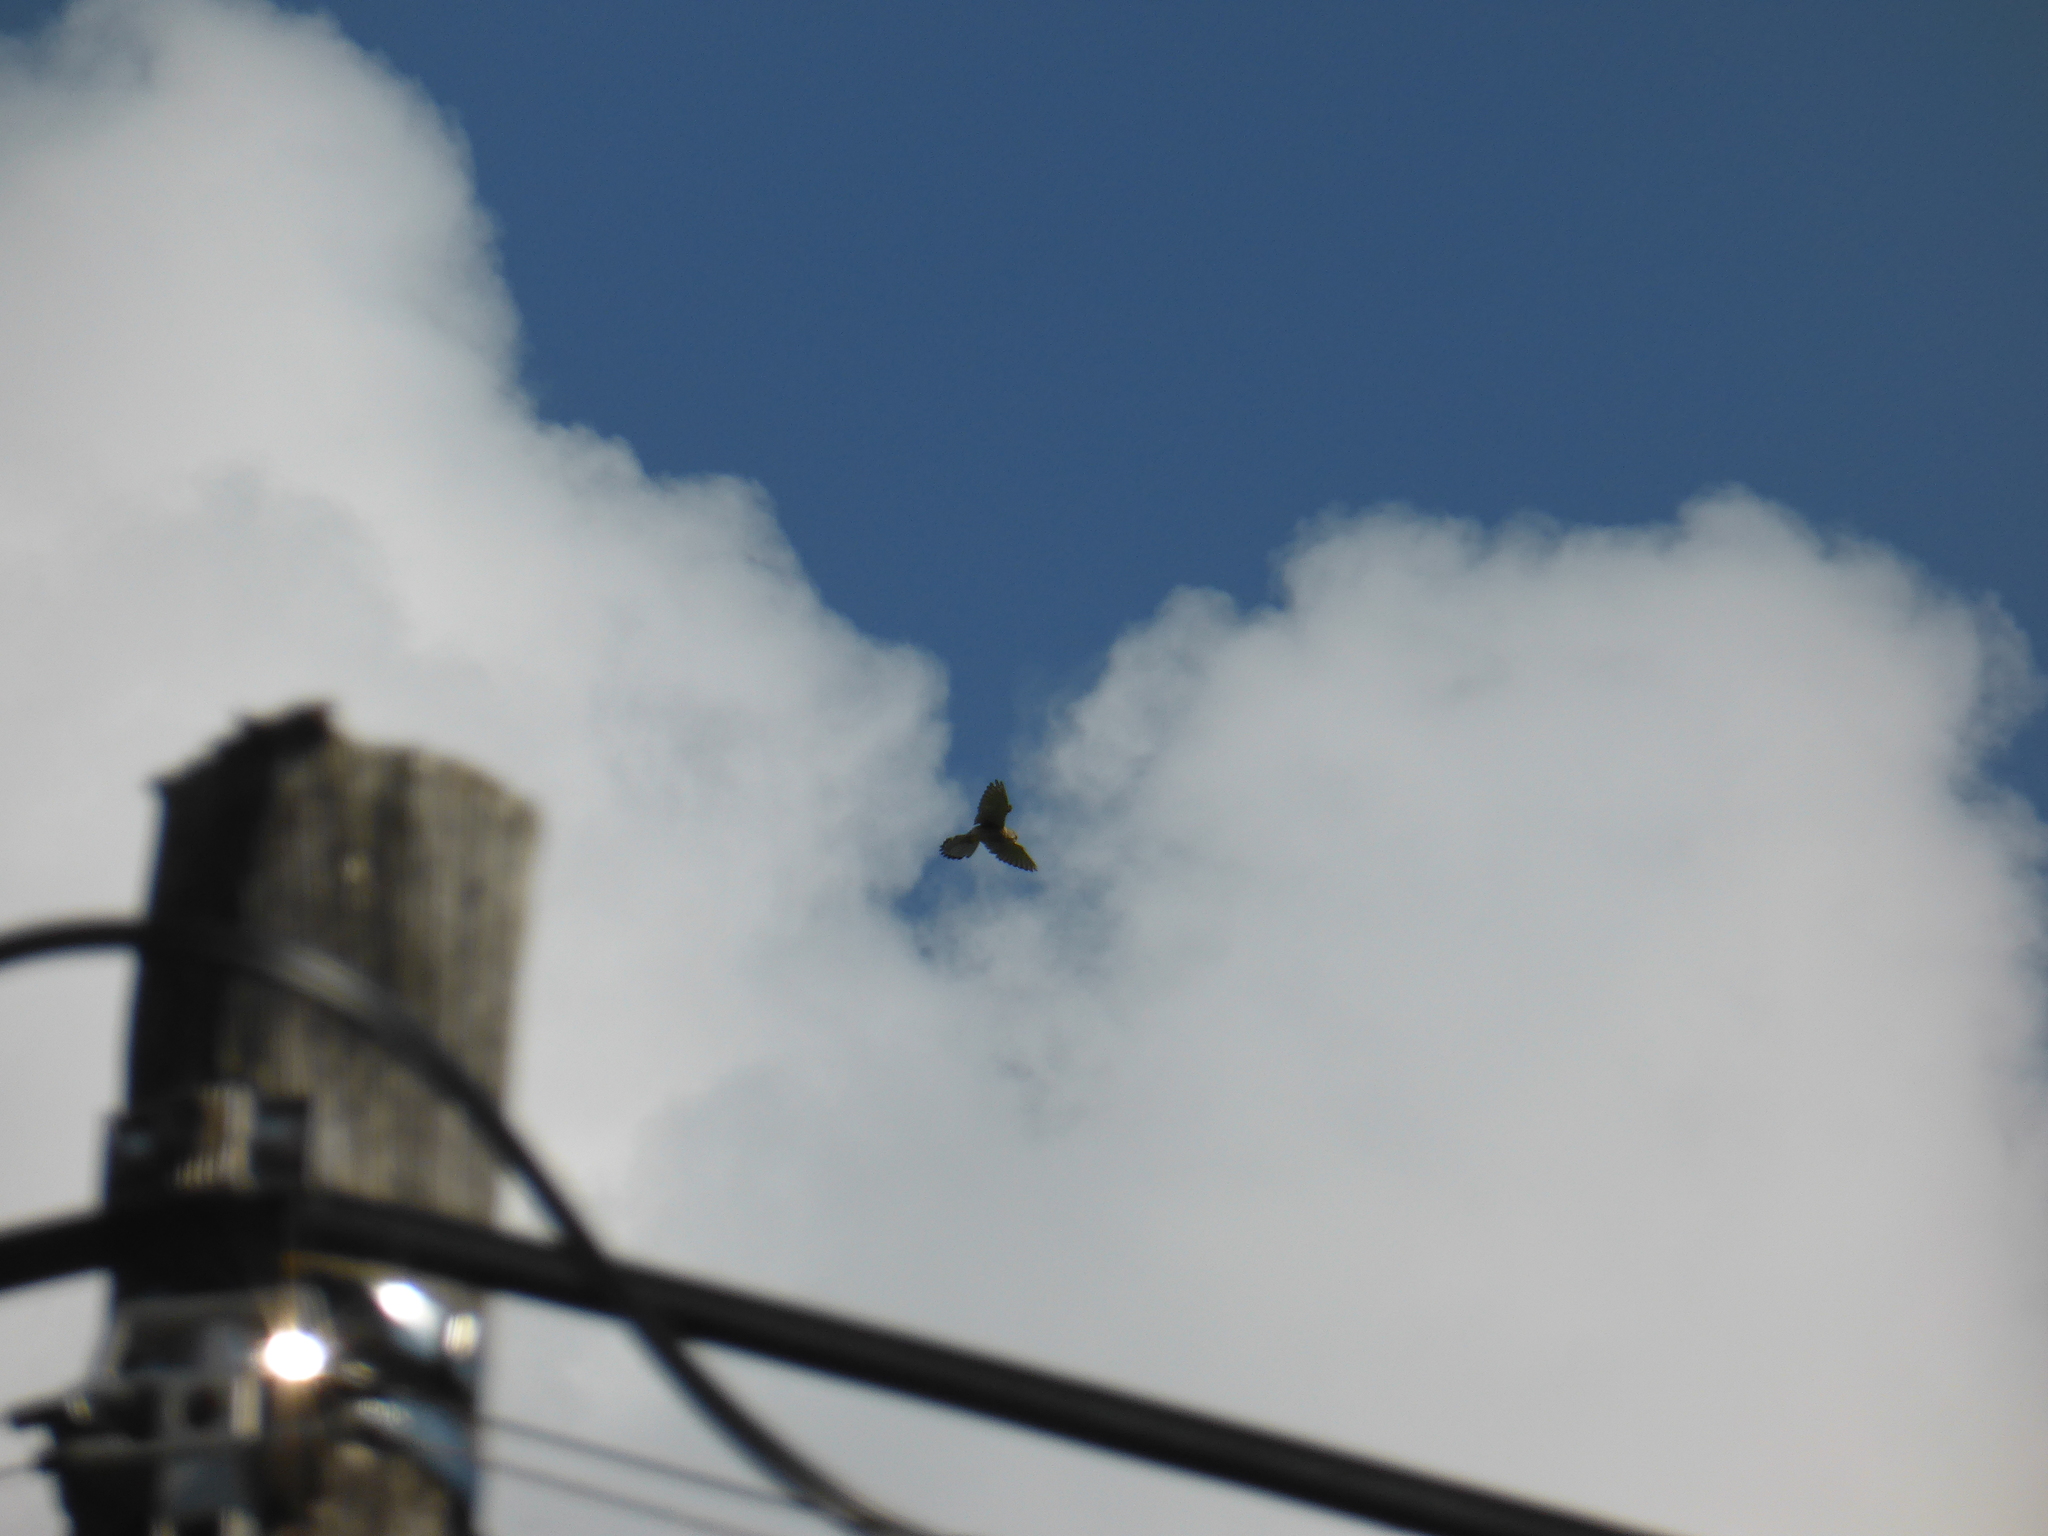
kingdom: Animalia
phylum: Chordata
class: Aves
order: Falconiformes
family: Falconidae
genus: Falco
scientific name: Falco tinnunculus
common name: Common kestrel
